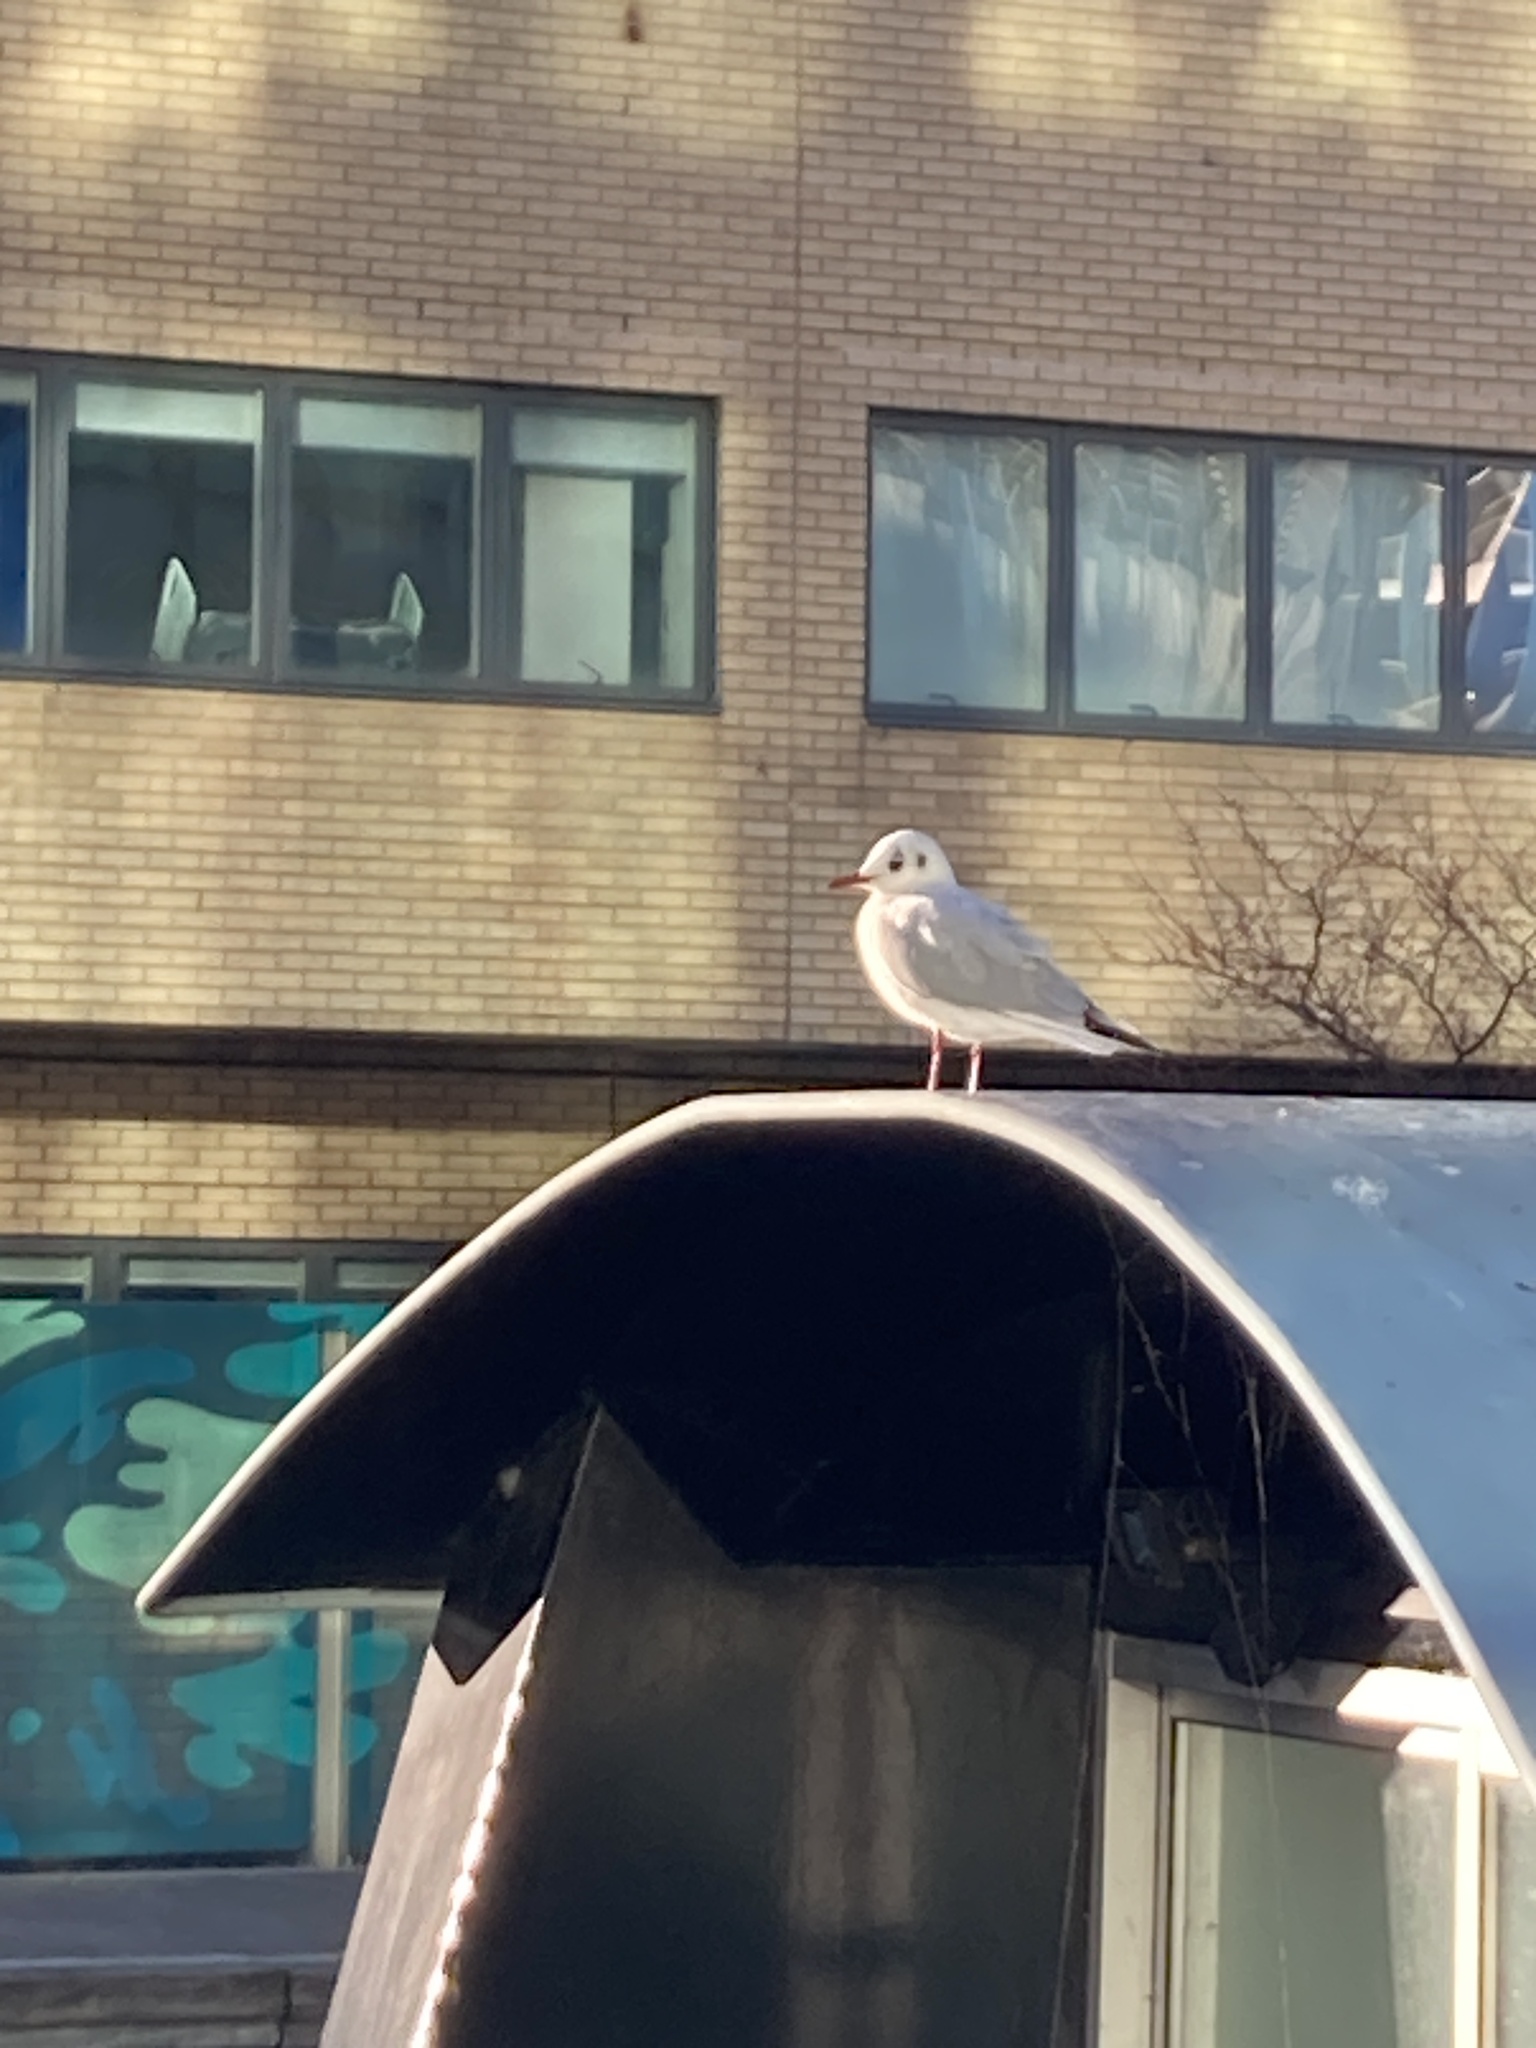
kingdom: Animalia
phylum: Chordata
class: Aves
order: Charadriiformes
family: Laridae
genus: Chroicocephalus
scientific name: Chroicocephalus ridibundus
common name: Black-headed gull
